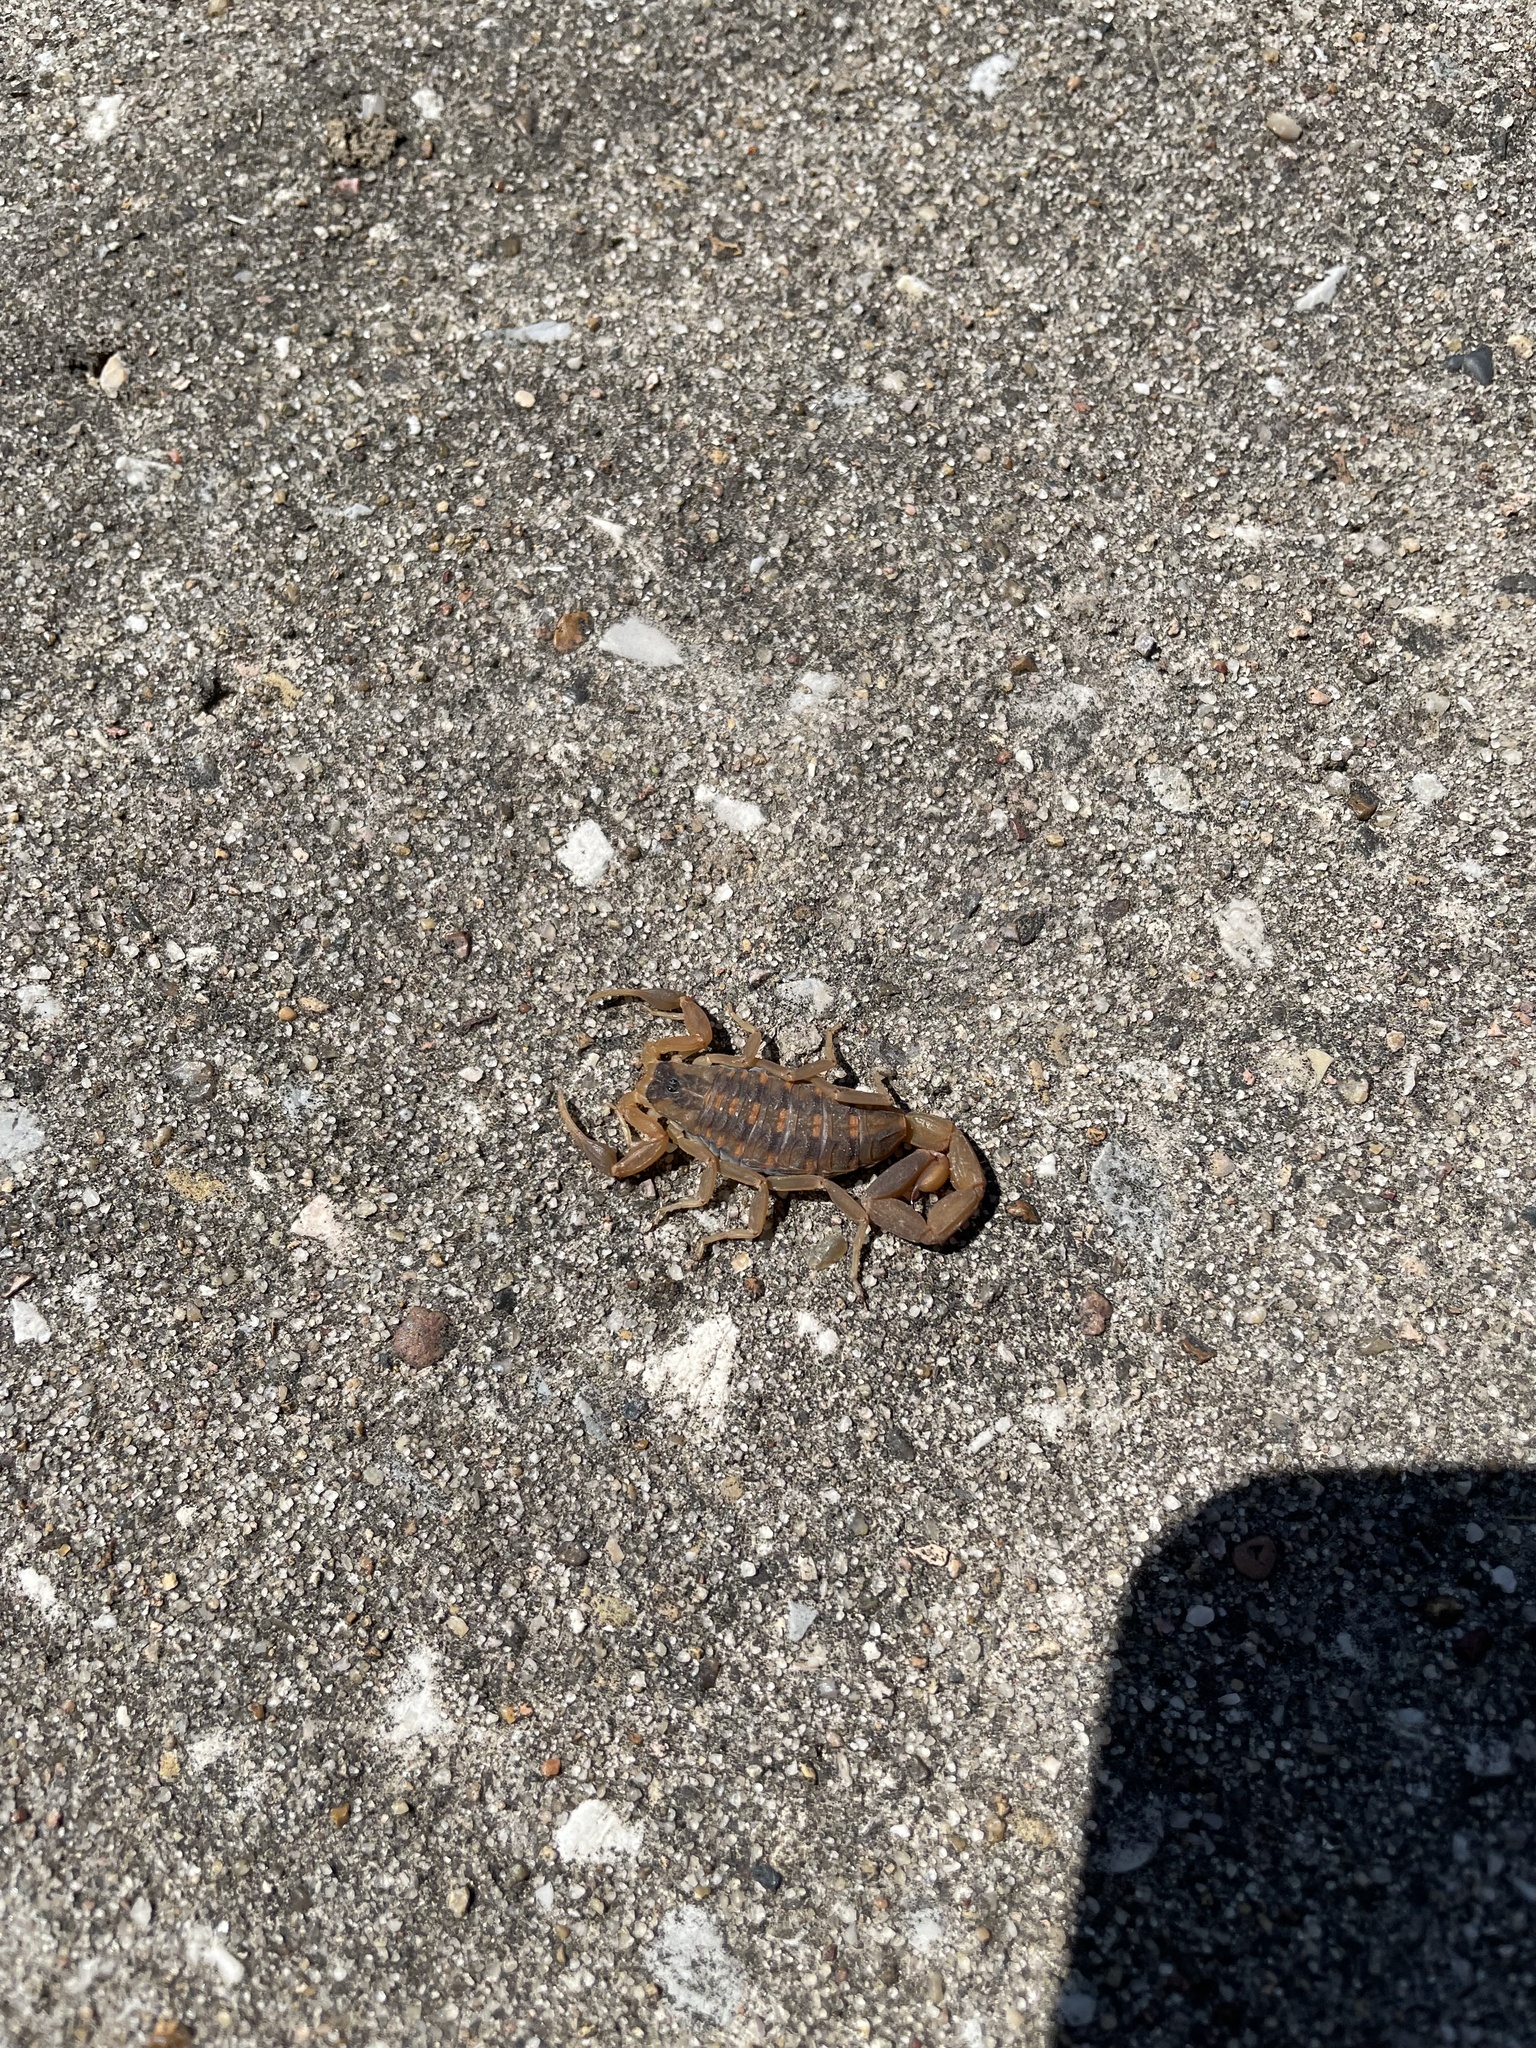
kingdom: Animalia
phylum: Arthropoda
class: Arachnida
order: Scorpiones
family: Buthidae
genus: Centruroides
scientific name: Centruroides vittatus
